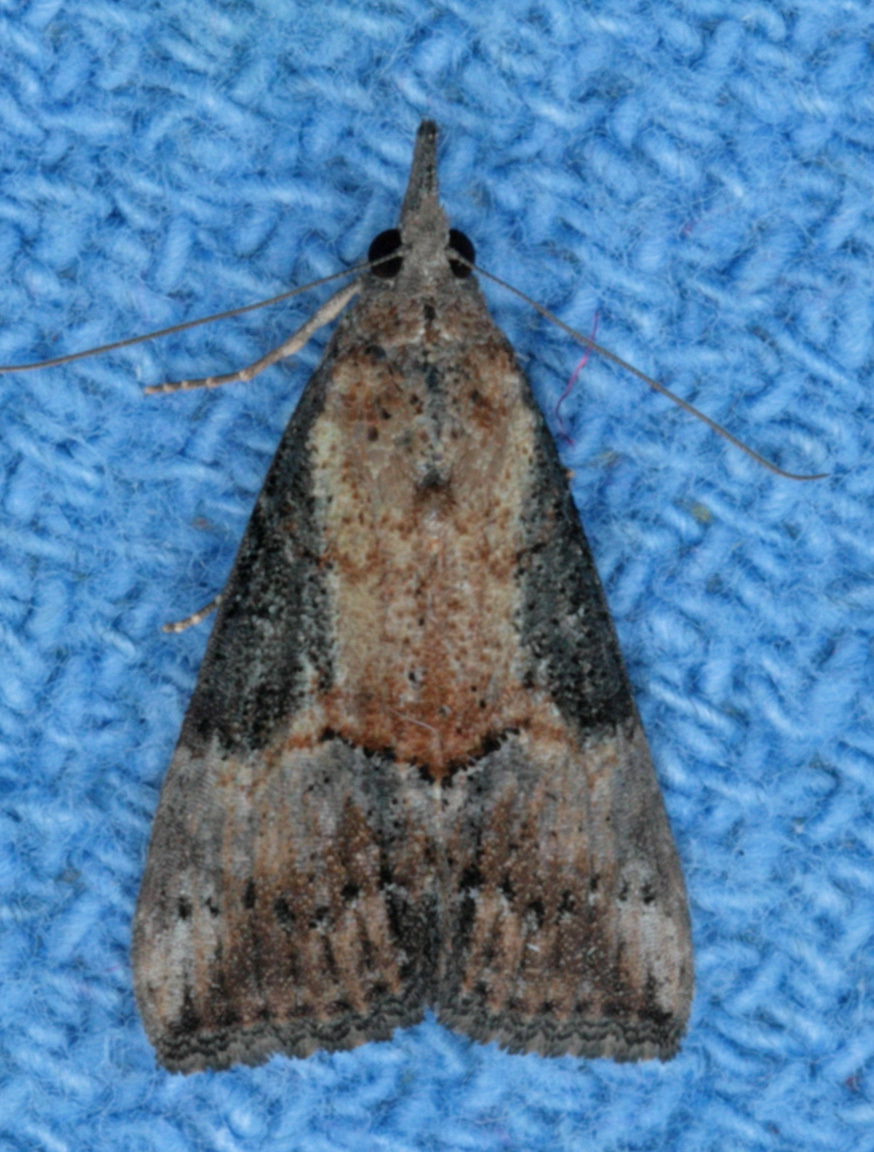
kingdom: Animalia
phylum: Arthropoda
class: Insecta
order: Lepidoptera
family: Erebidae
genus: Hypena
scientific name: Hypena scabra
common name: Green cloverworm
